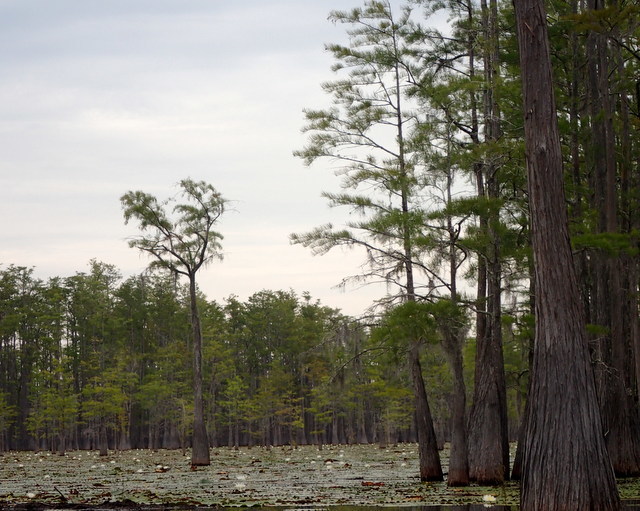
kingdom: Plantae
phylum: Tracheophyta
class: Pinopsida
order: Pinales
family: Cupressaceae
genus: Taxodium
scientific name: Taxodium distichum
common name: Bald cypress
